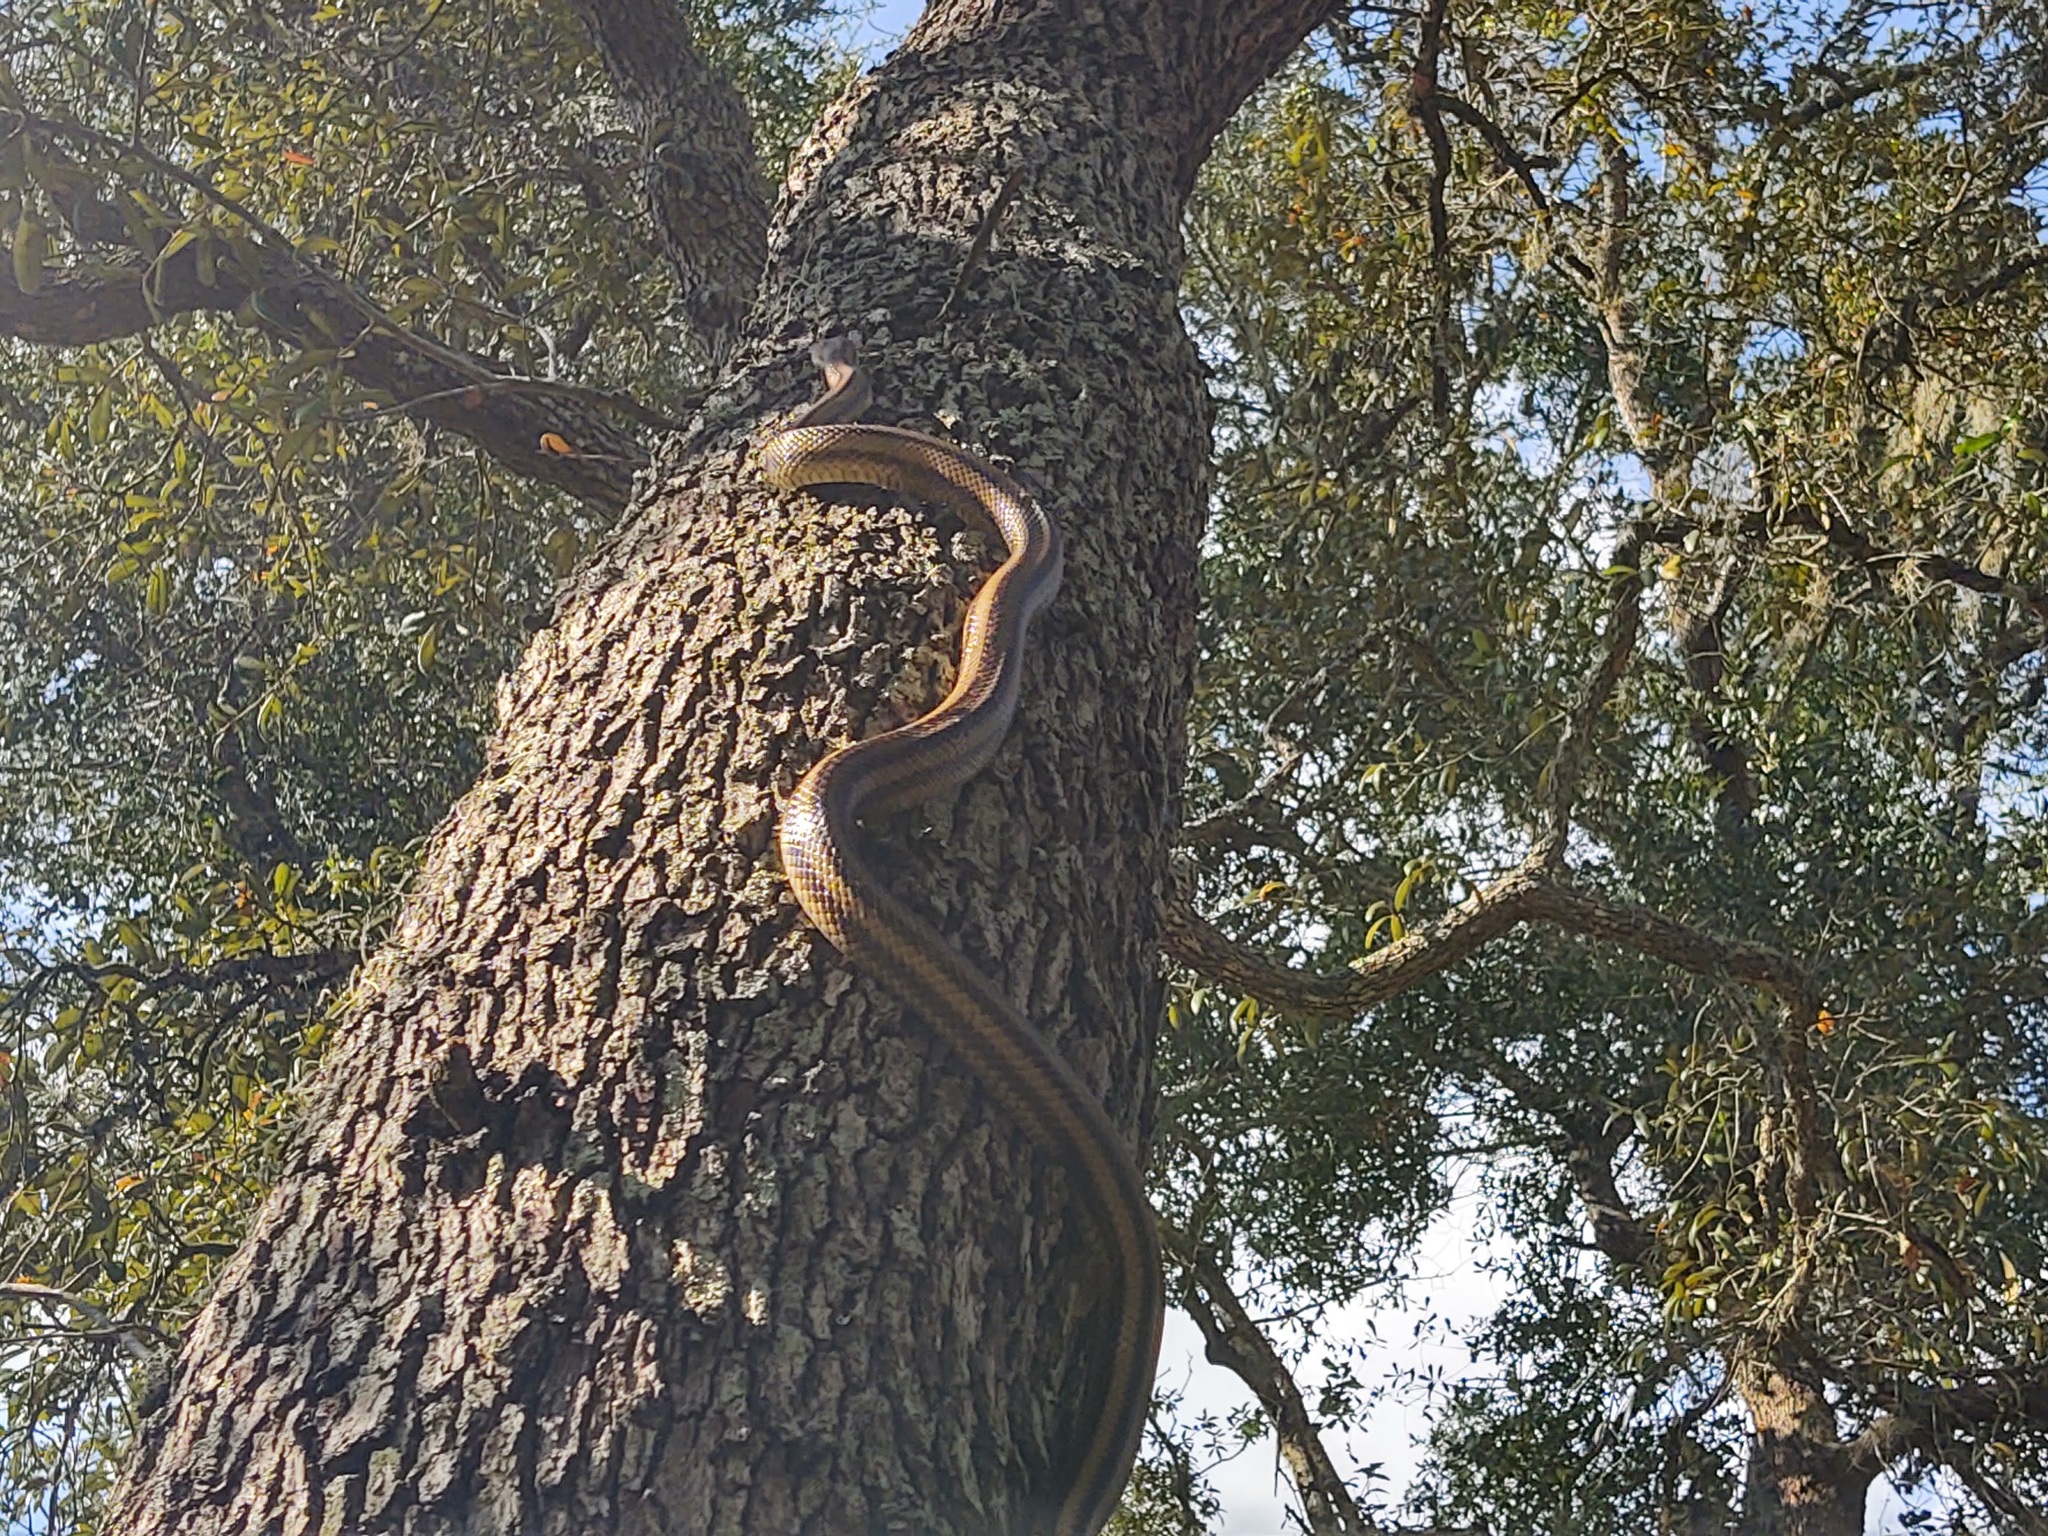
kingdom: Animalia
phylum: Chordata
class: Squamata
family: Colubridae
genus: Pantherophis
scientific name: Pantherophis alleghaniensis
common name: Eastern rat snake
